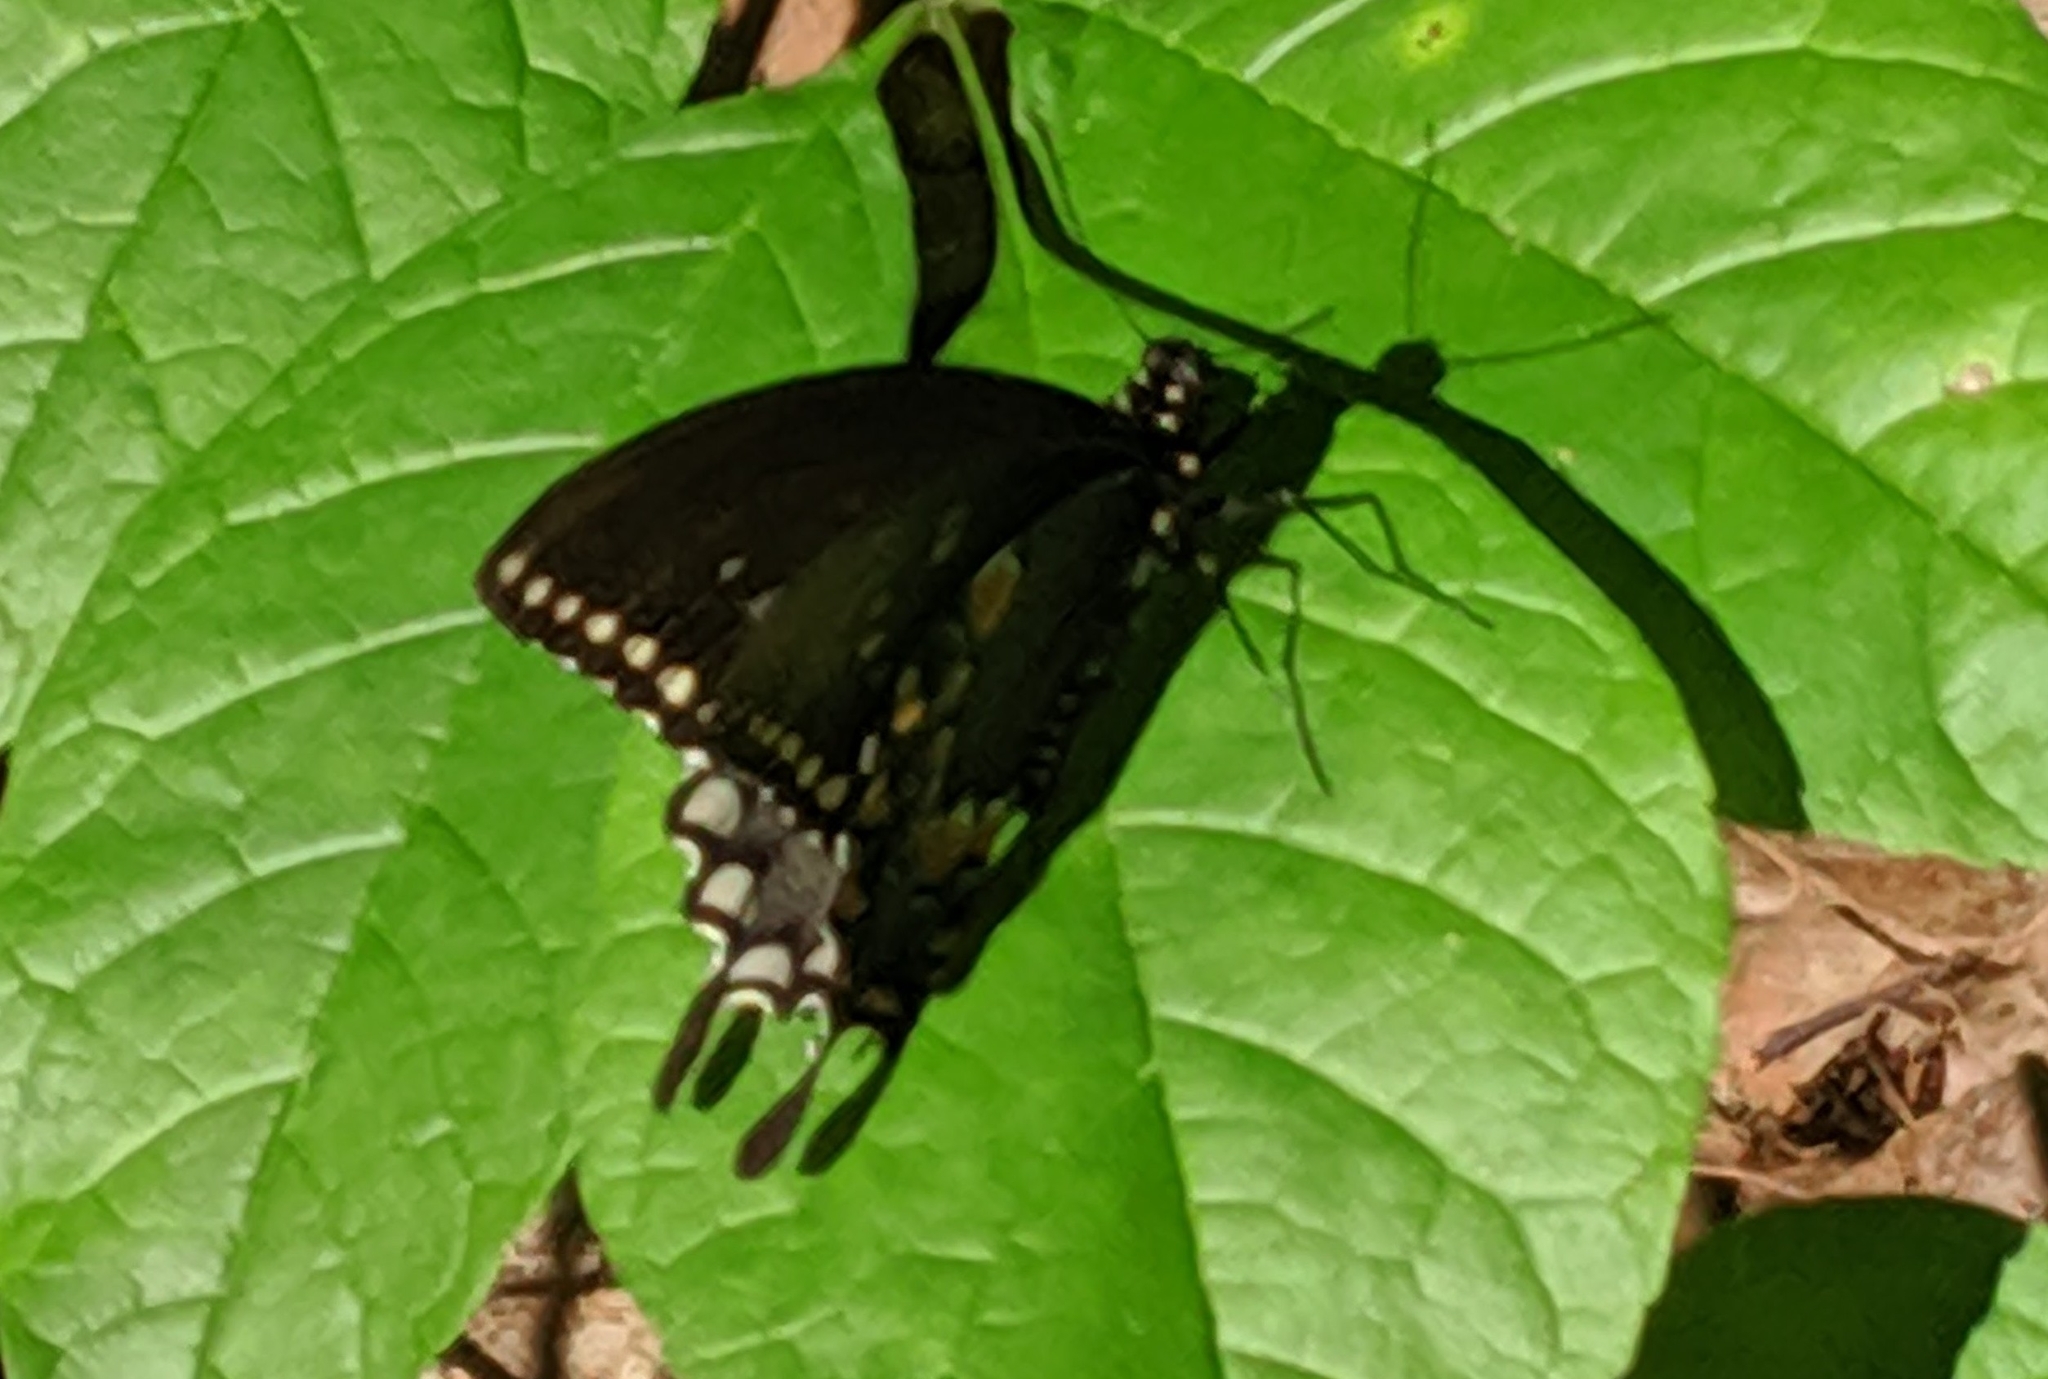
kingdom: Animalia
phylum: Arthropoda
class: Insecta
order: Lepidoptera
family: Papilionidae
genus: Papilio
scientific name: Papilio troilus
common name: Spicebush swallowtail
